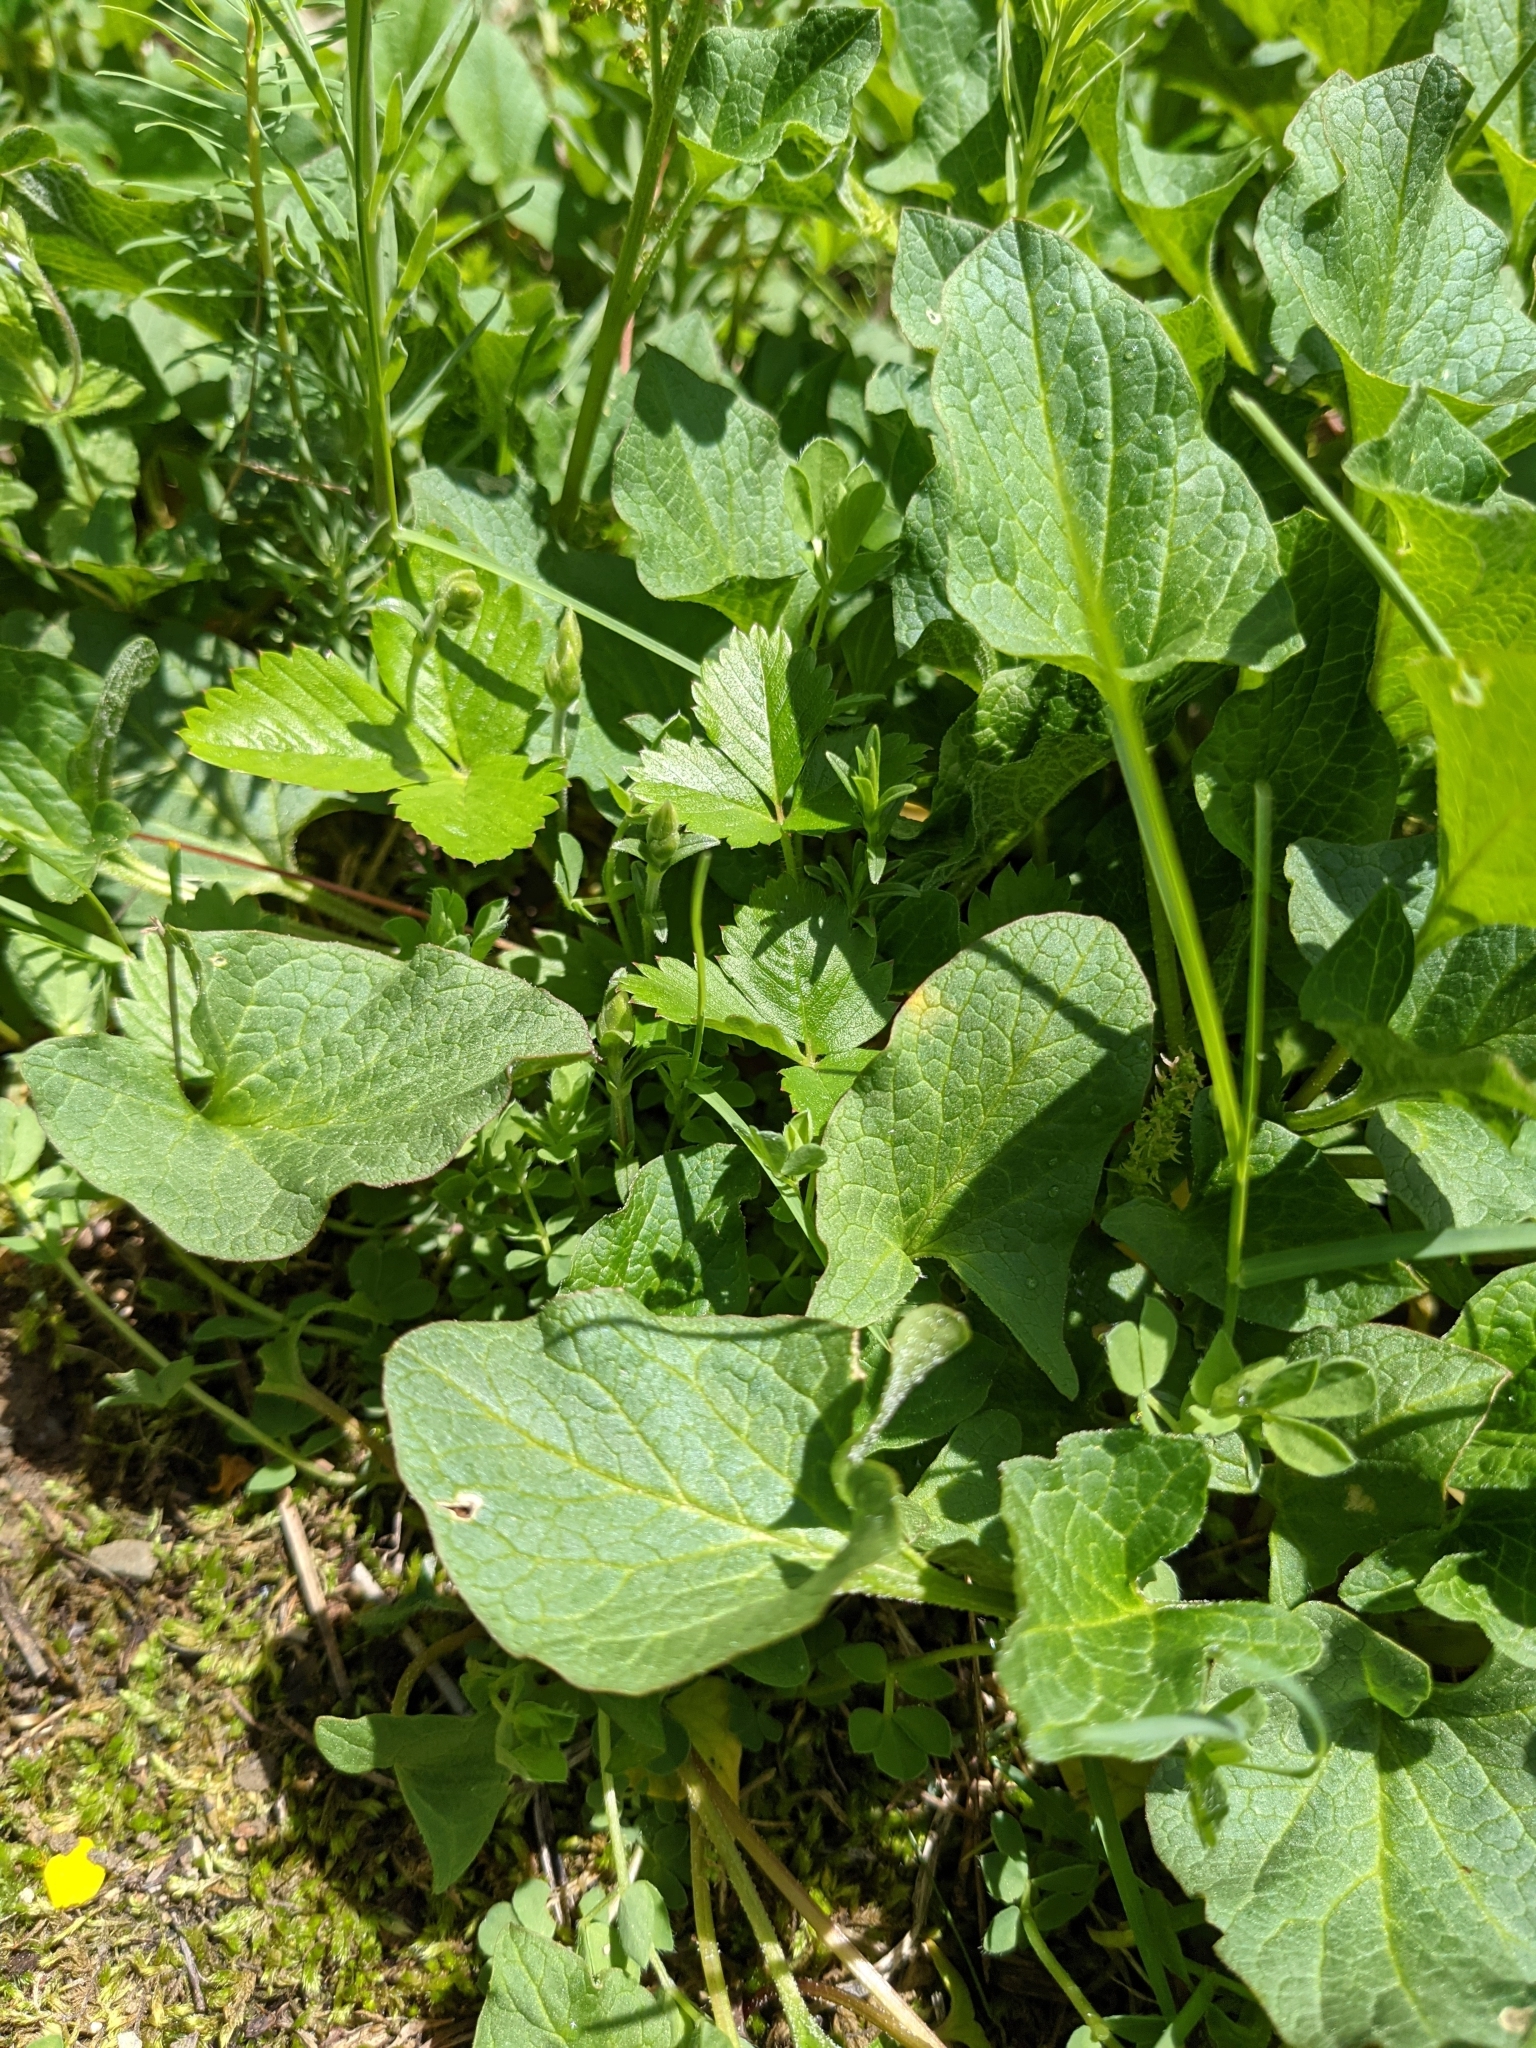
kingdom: Plantae
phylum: Tracheophyta
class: Magnoliopsida
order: Caryophyllales
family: Amaranthaceae
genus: Blitum
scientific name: Blitum bonus-henricus
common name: Good king henry
